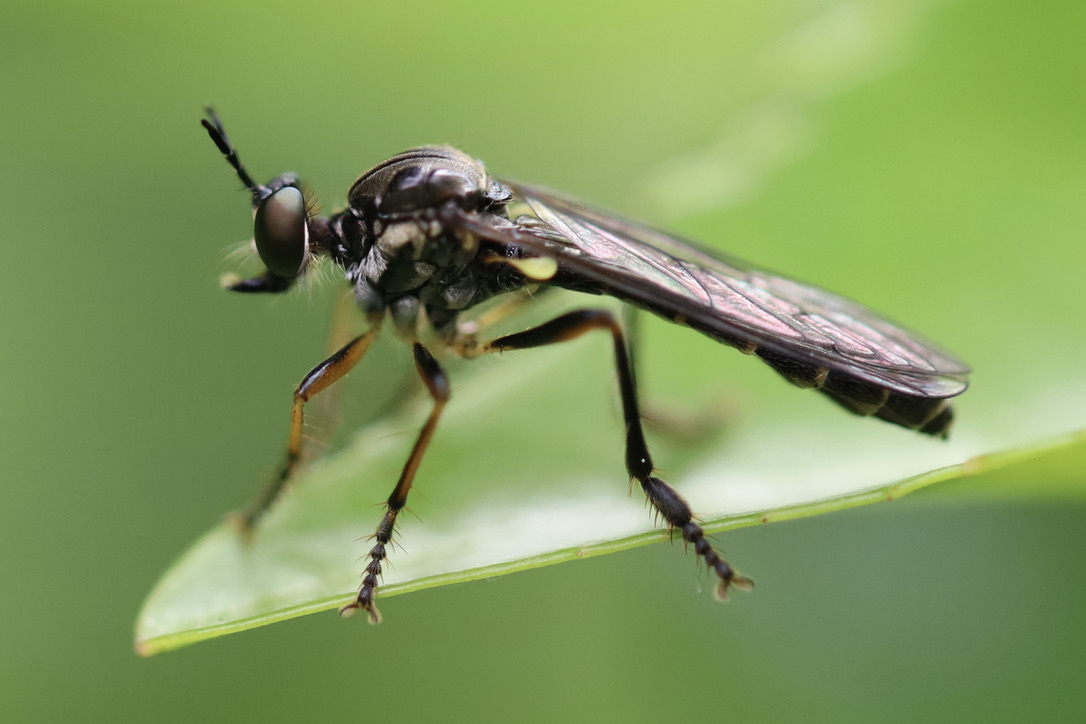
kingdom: Animalia
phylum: Arthropoda
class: Insecta
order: Diptera
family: Asilidae
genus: Dioctria
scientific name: Dioctria hyalipennis
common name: Stripe-legged robberfly
